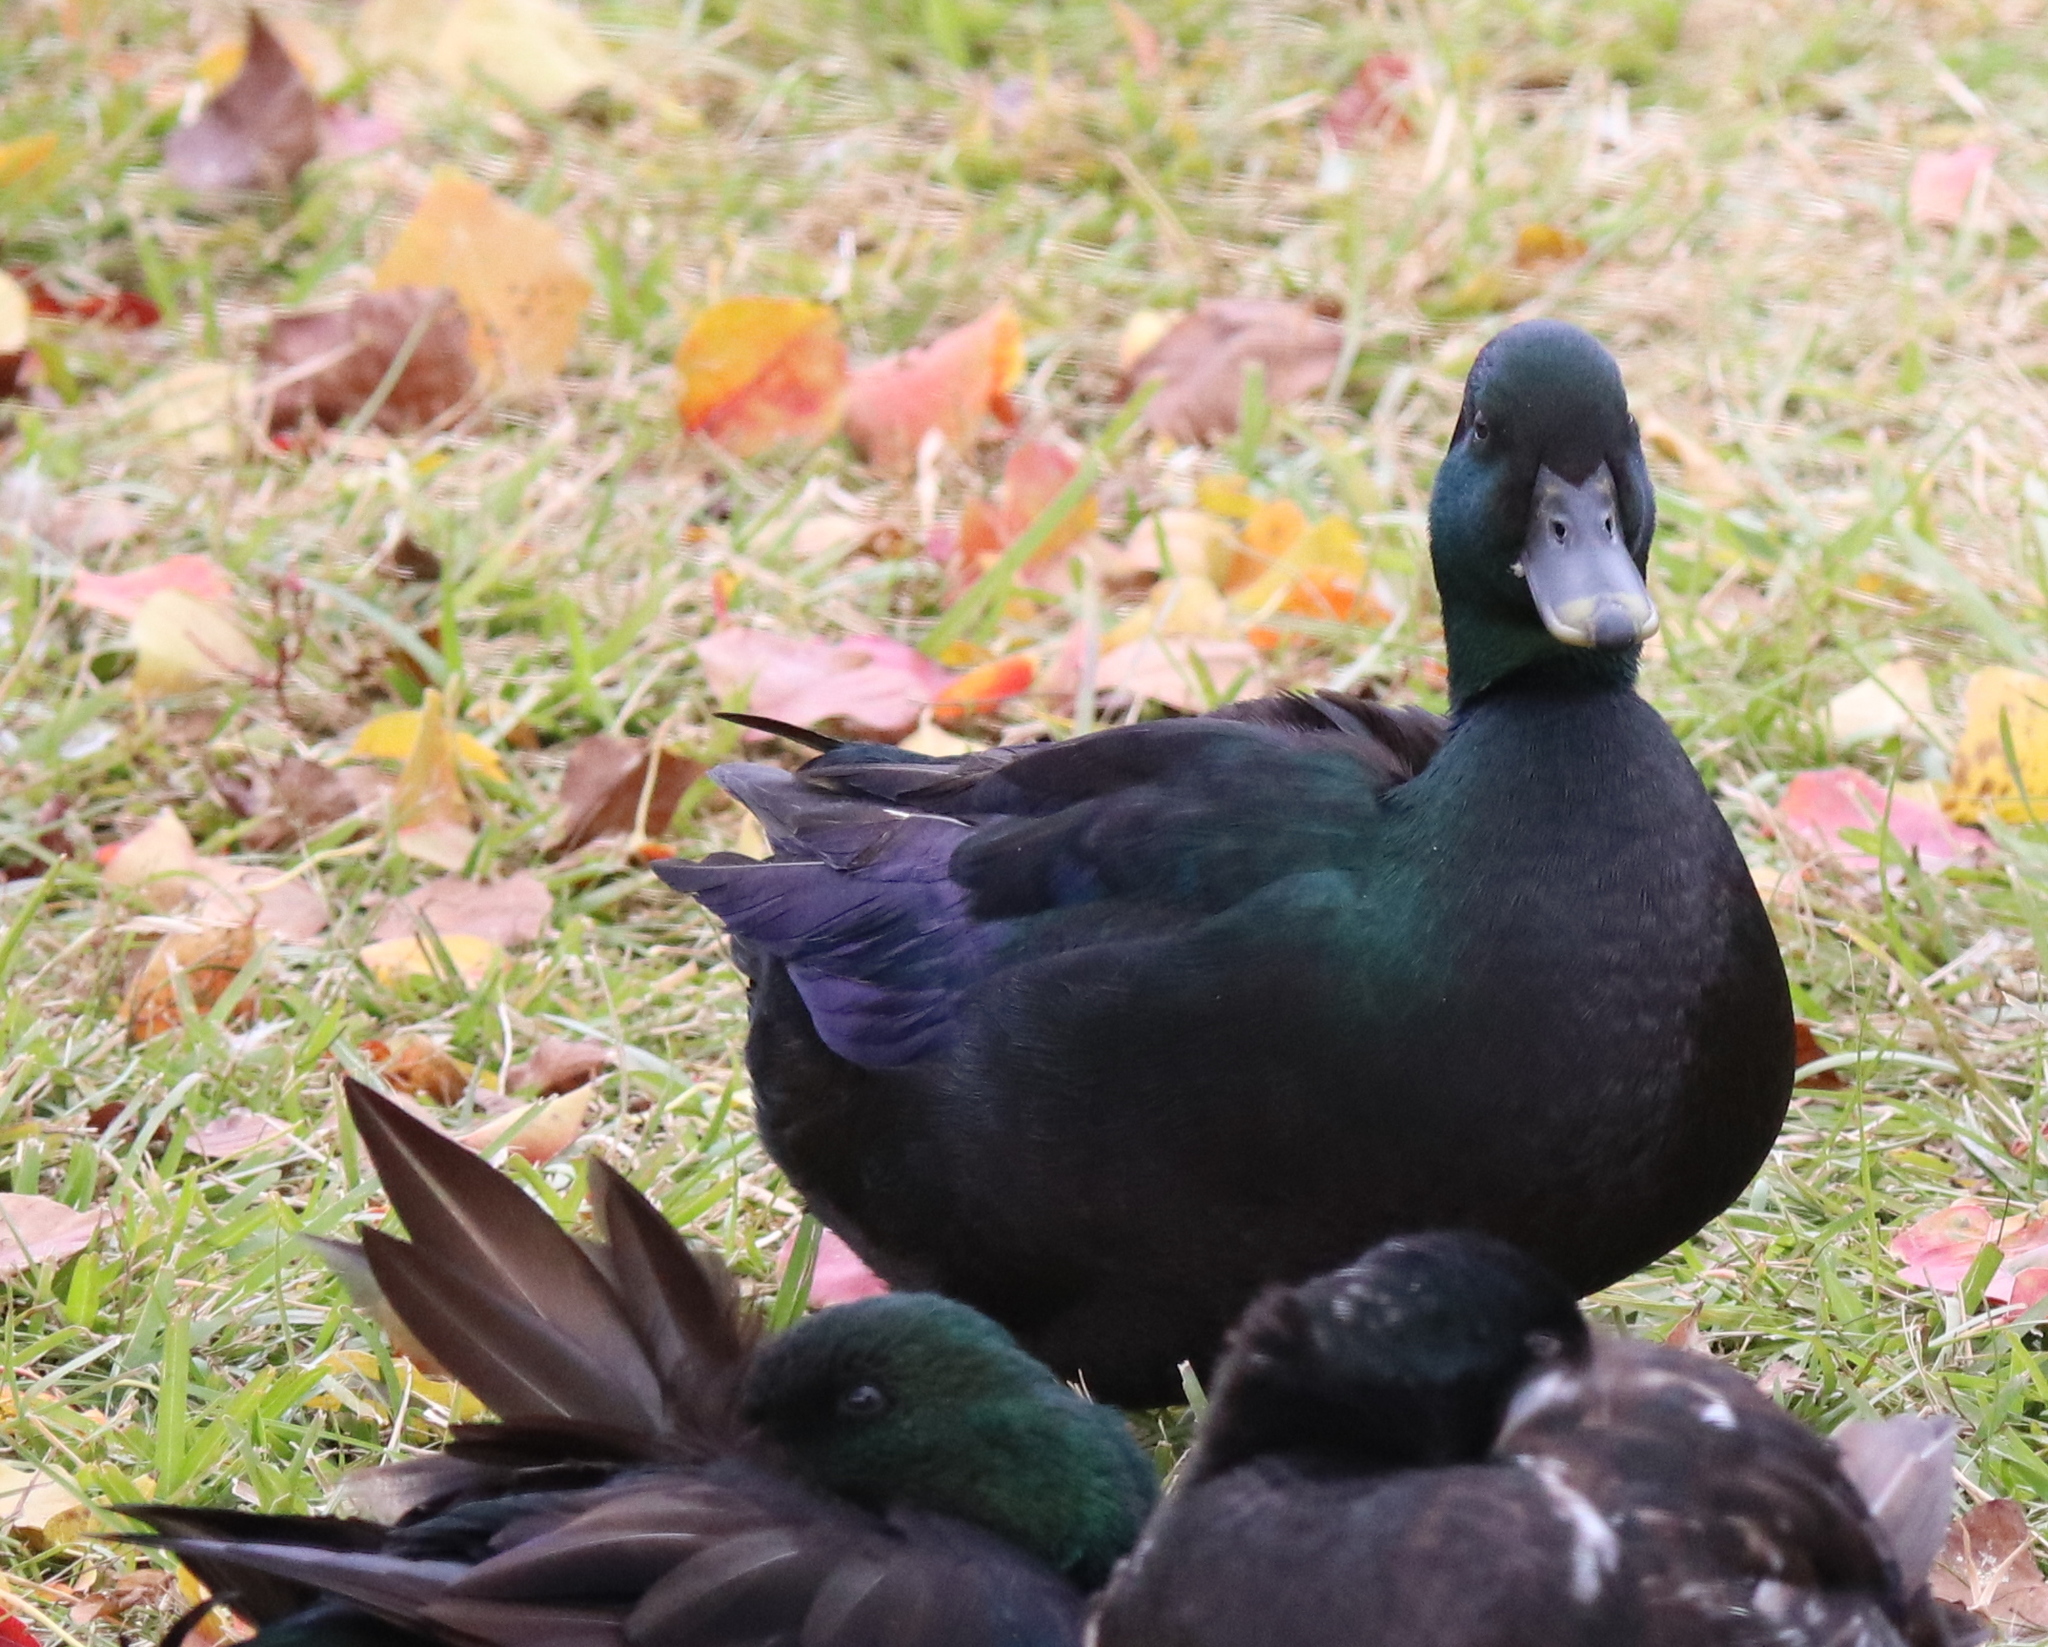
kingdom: Animalia
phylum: Chordata
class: Aves
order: Anseriformes
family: Anatidae
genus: Anas
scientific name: Anas platyrhynchos
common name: Mallard
